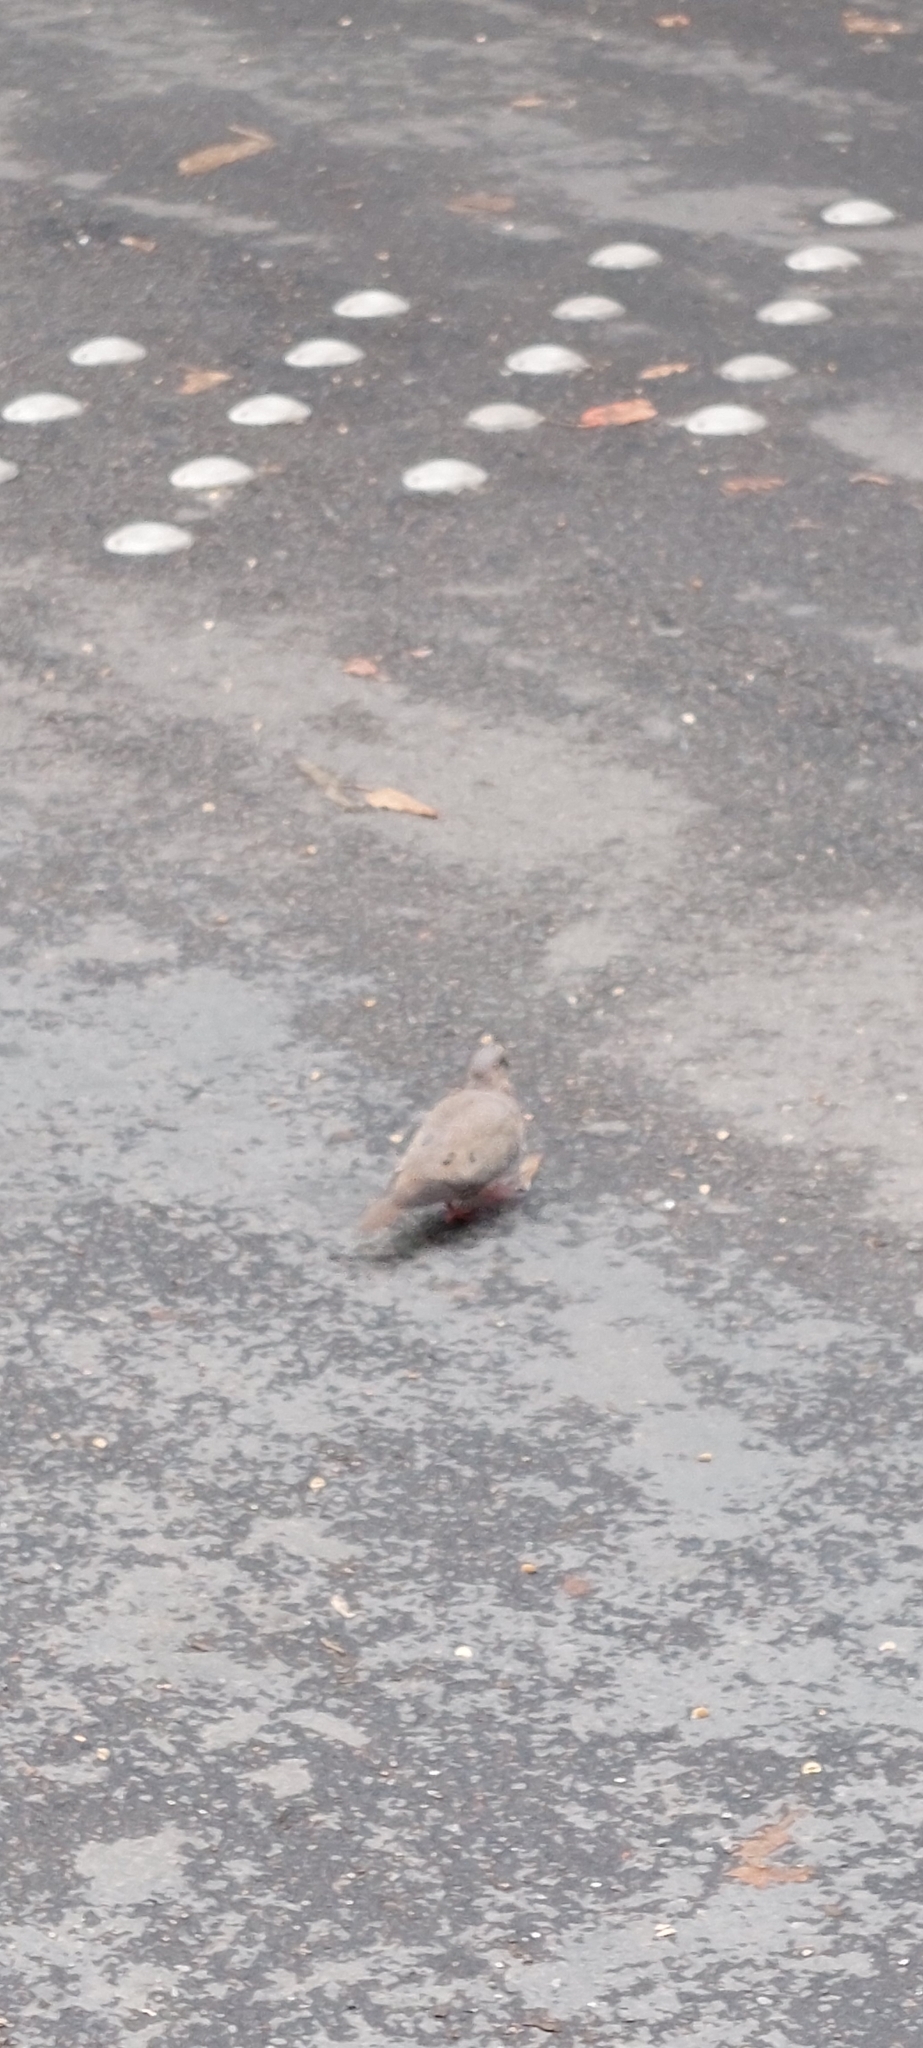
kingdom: Animalia
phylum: Chordata
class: Aves
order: Columbiformes
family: Columbidae
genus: Zenaida
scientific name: Zenaida auriculata
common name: Eared dove
